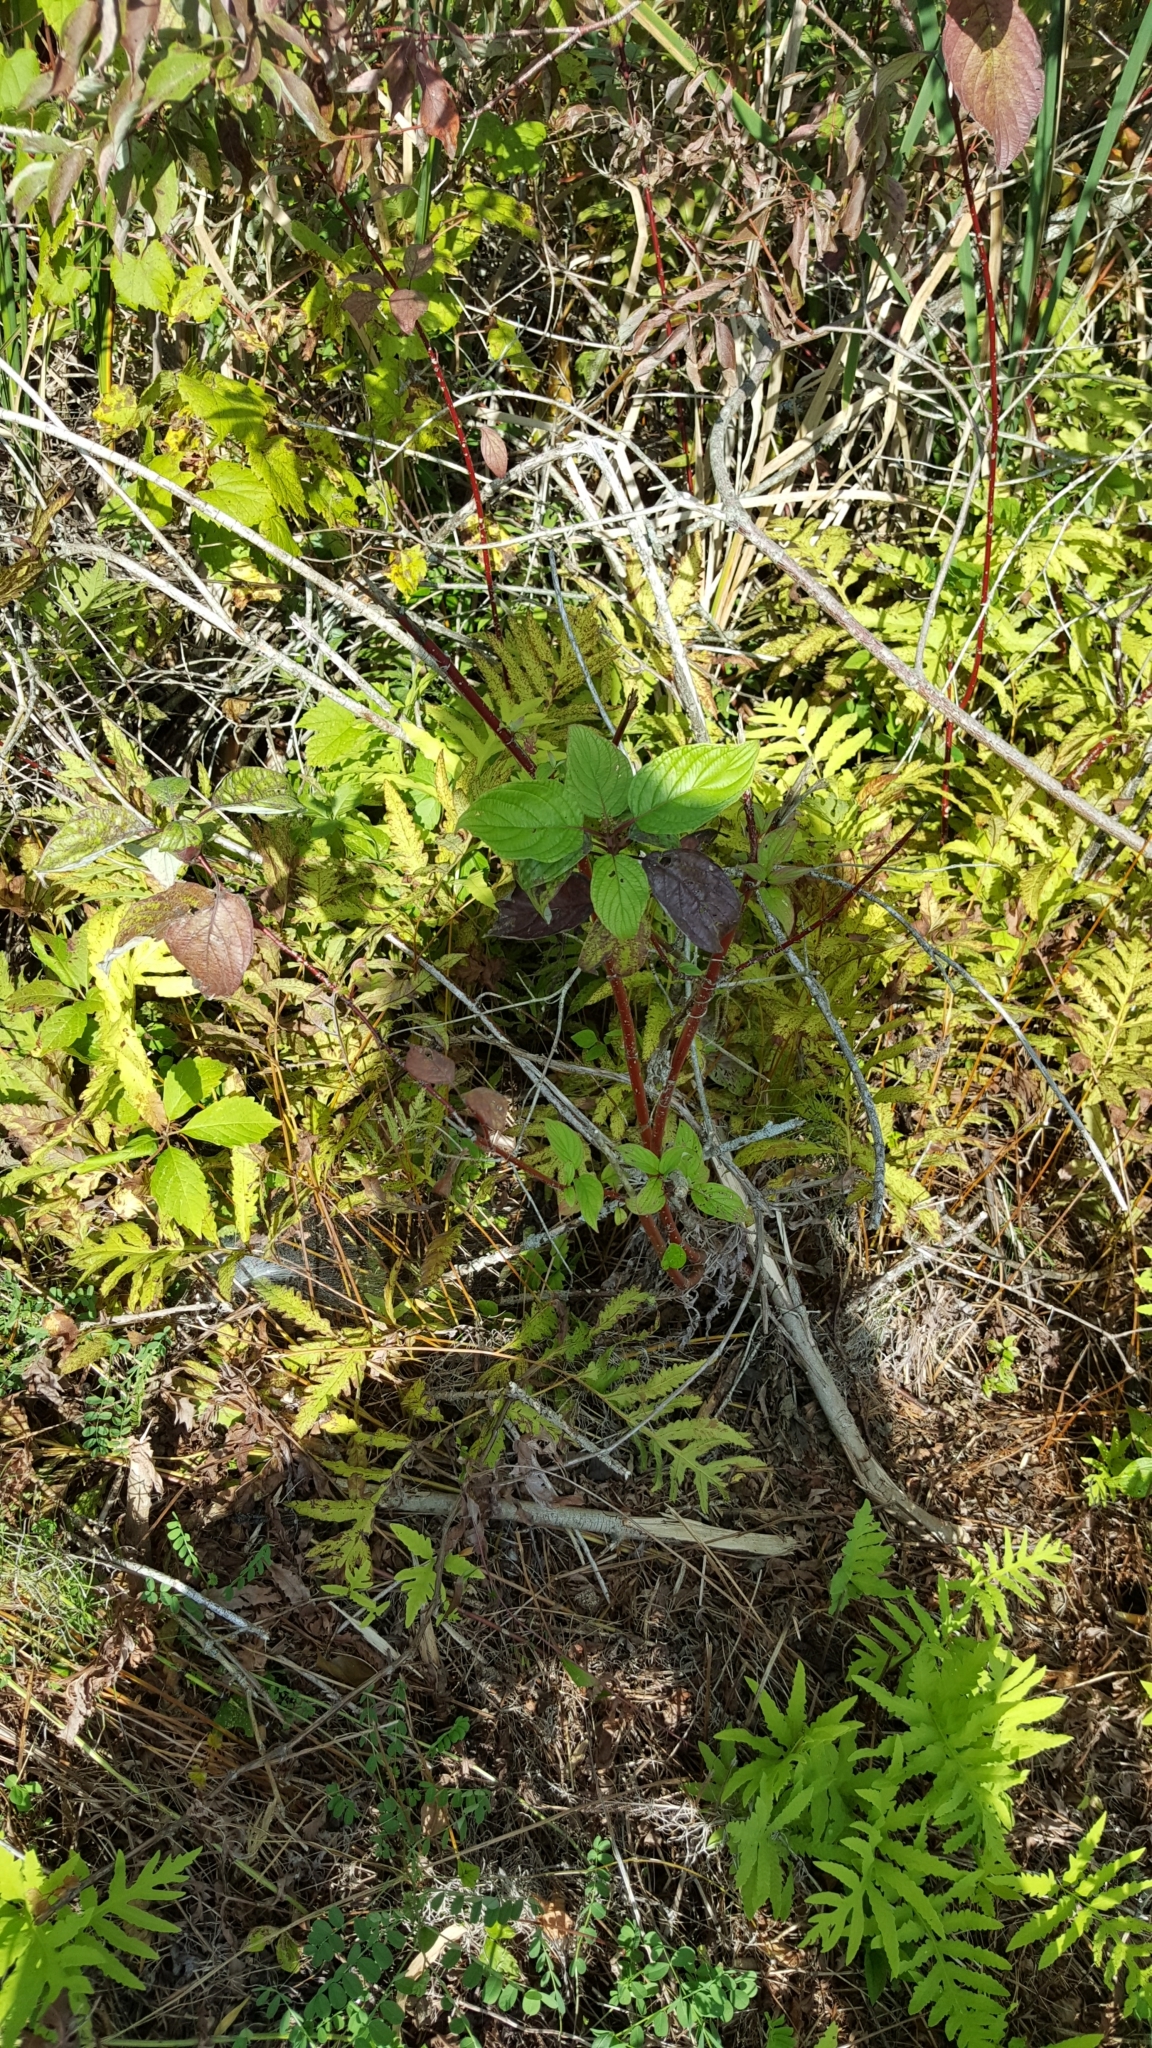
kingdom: Plantae
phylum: Tracheophyta
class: Magnoliopsida
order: Cornales
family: Cornaceae
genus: Cornus
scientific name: Cornus sericea
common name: Red-osier dogwood
